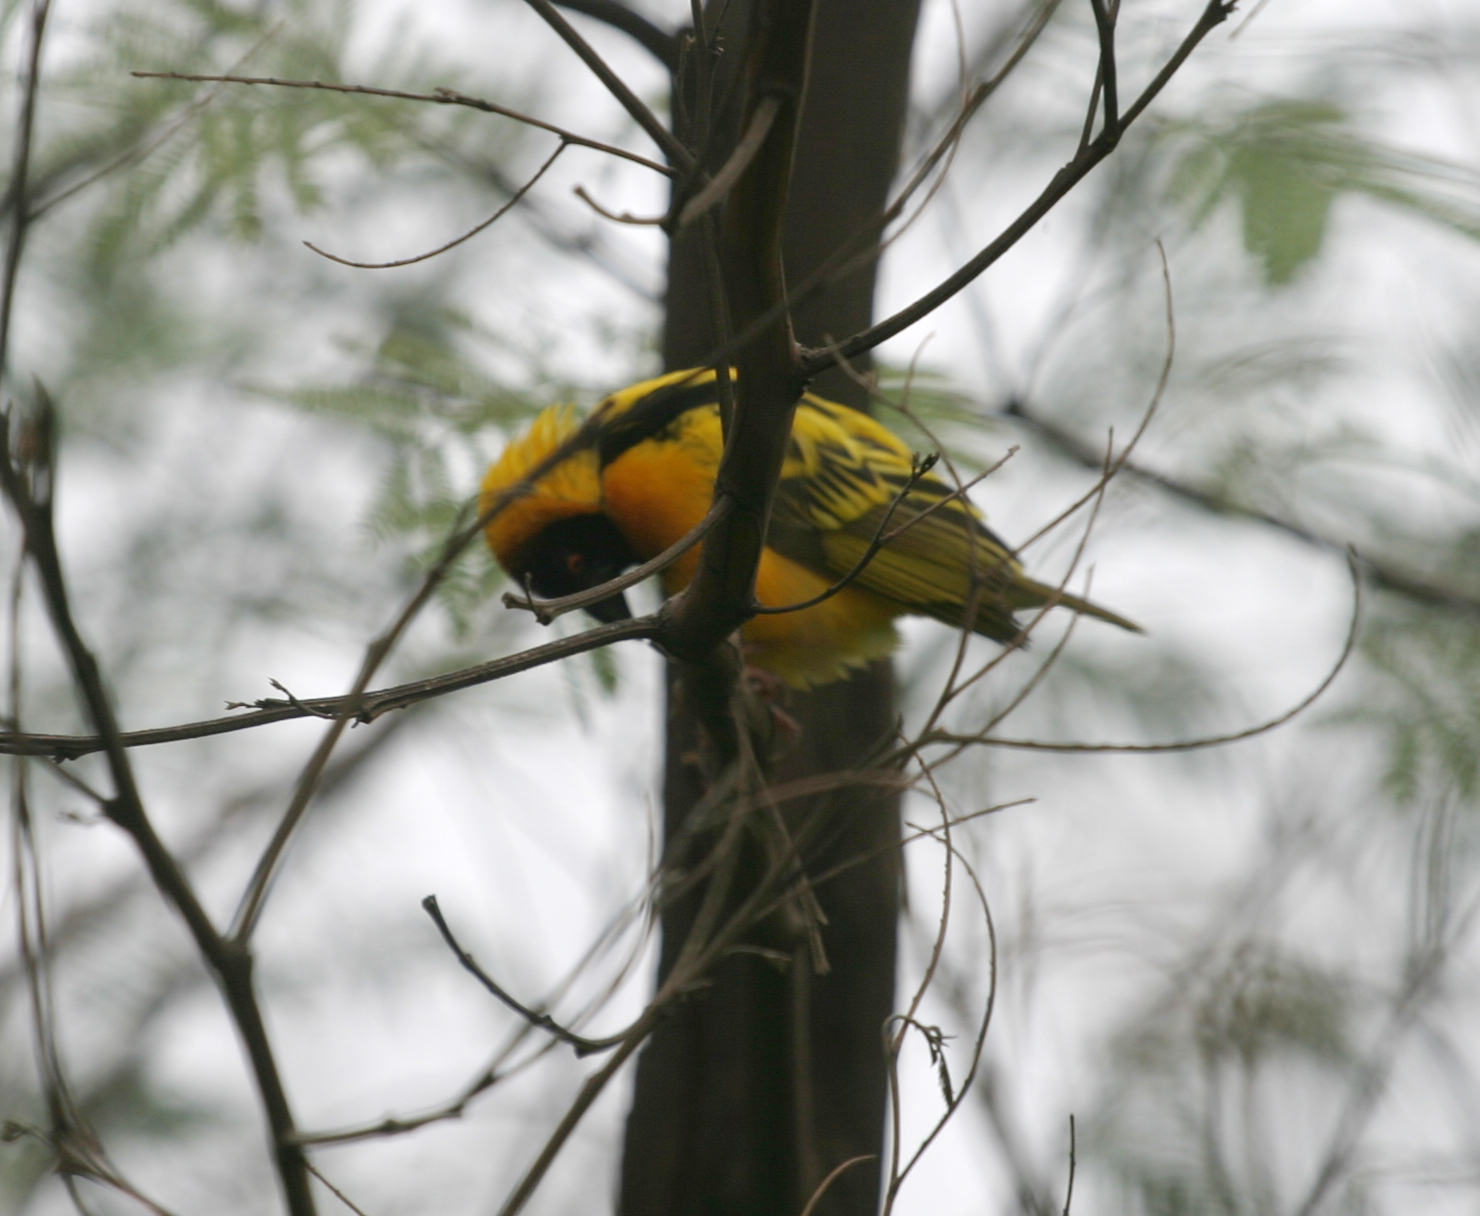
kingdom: Animalia
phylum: Chordata
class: Aves
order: Passeriformes
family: Ploceidae
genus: Ploceus
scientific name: Ploceus cucullatus
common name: Village weaver
